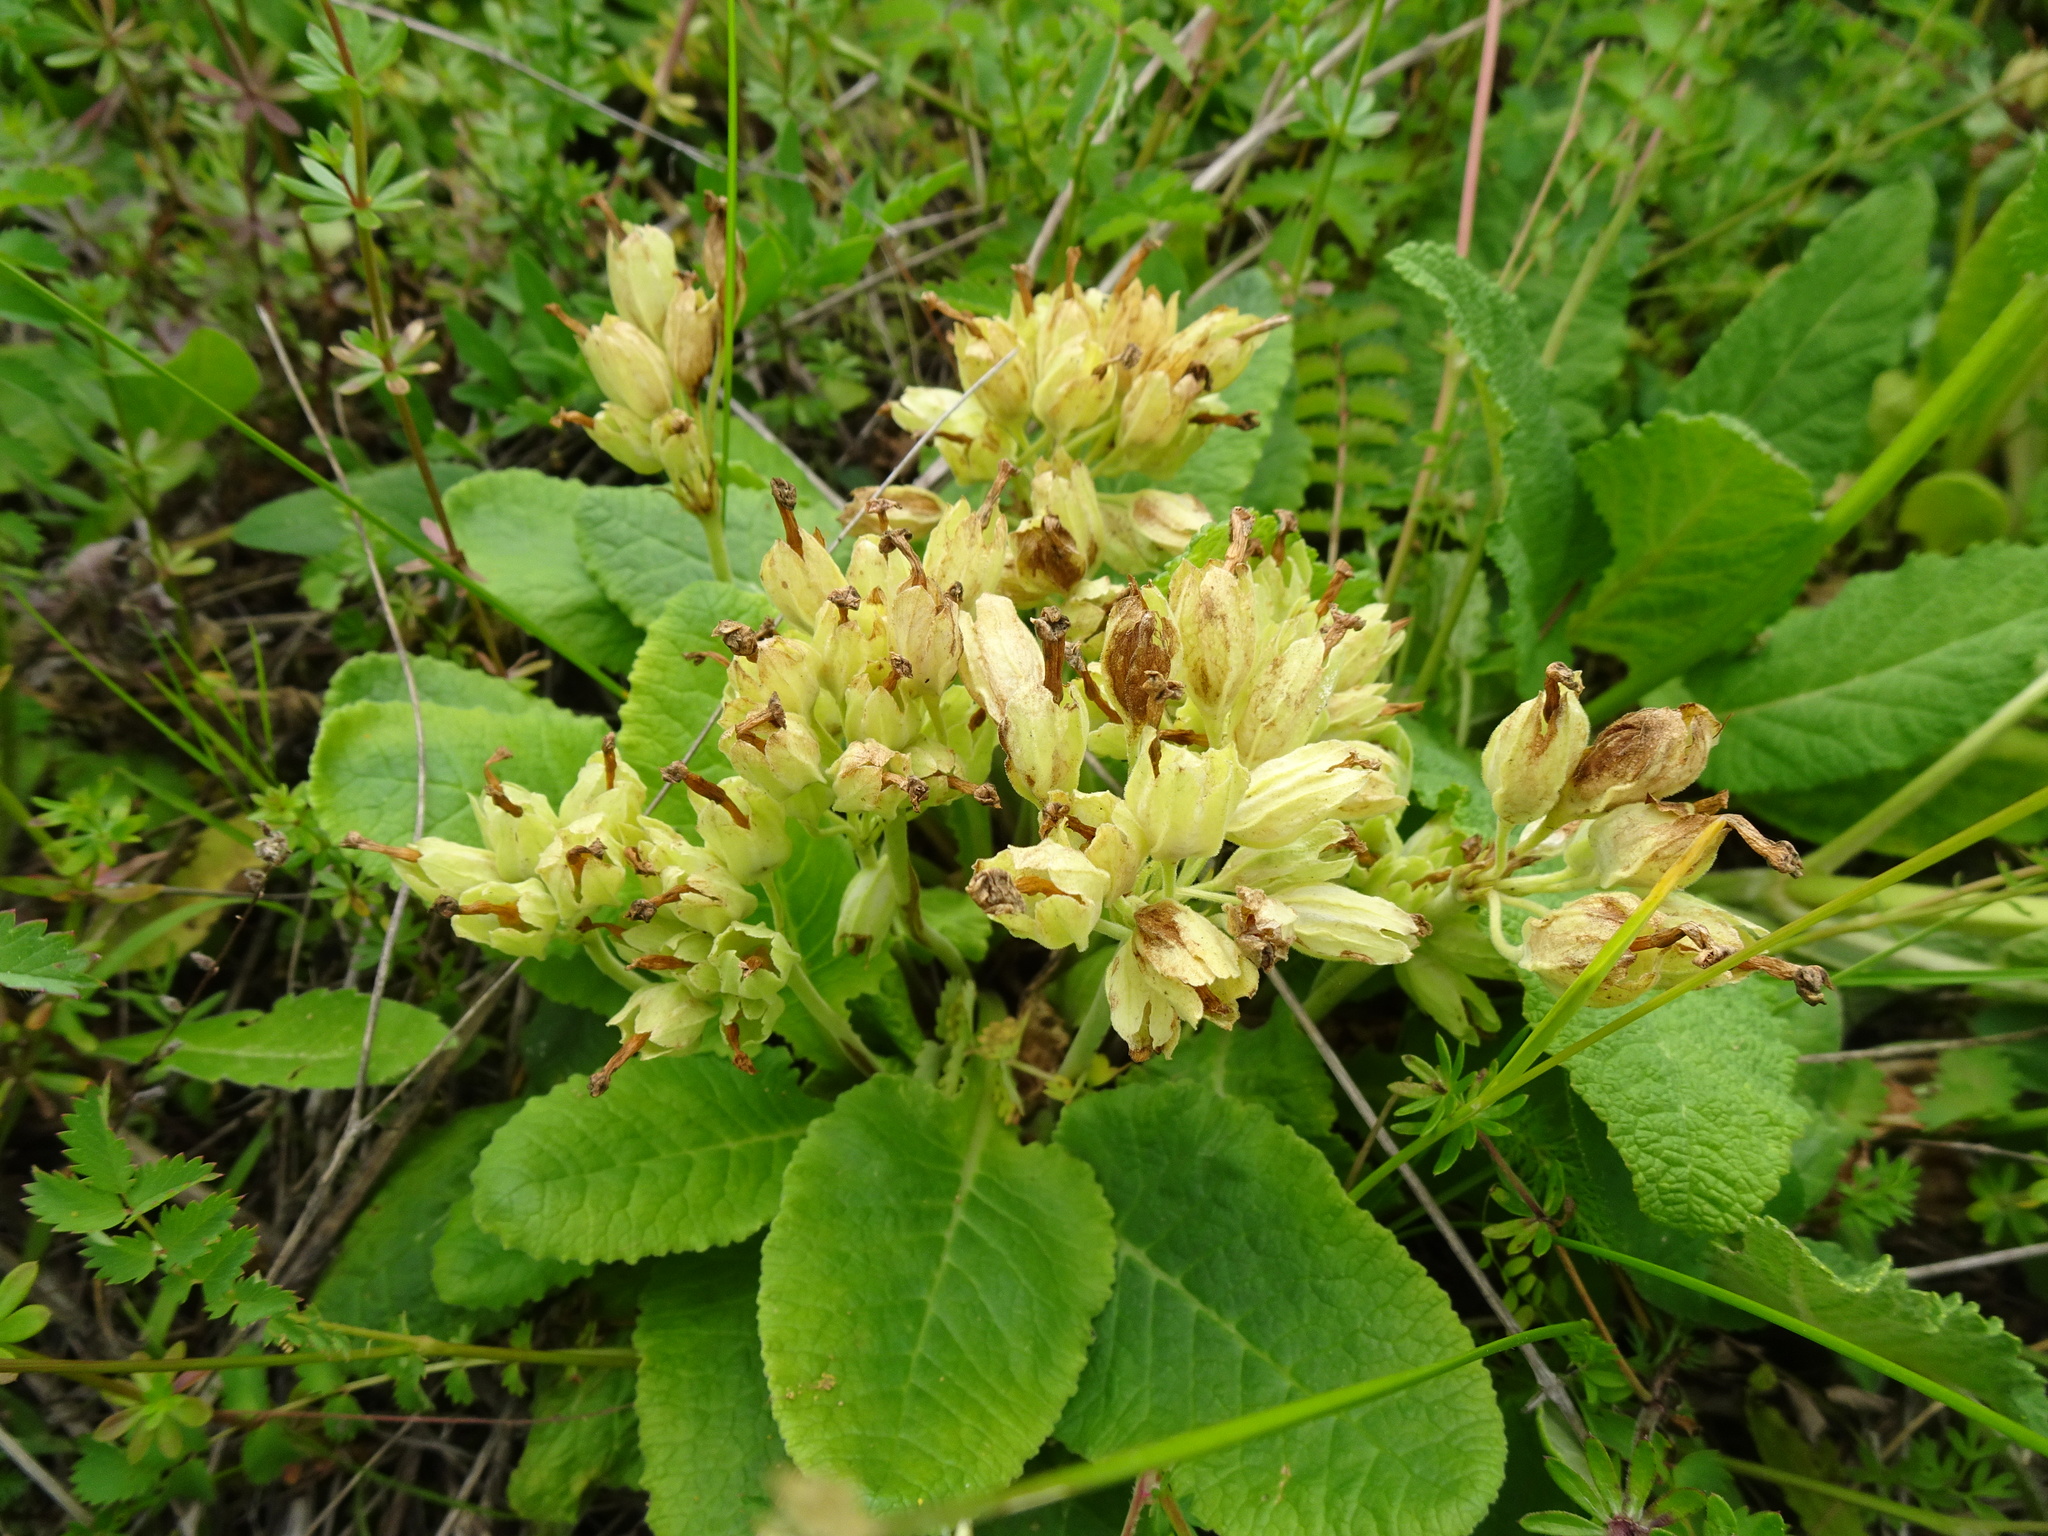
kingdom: Plantae
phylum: Tracheophyta
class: Magnoliopsida
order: Ericales
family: Primulaceae
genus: Primula
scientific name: Primula veris
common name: Cowslip
